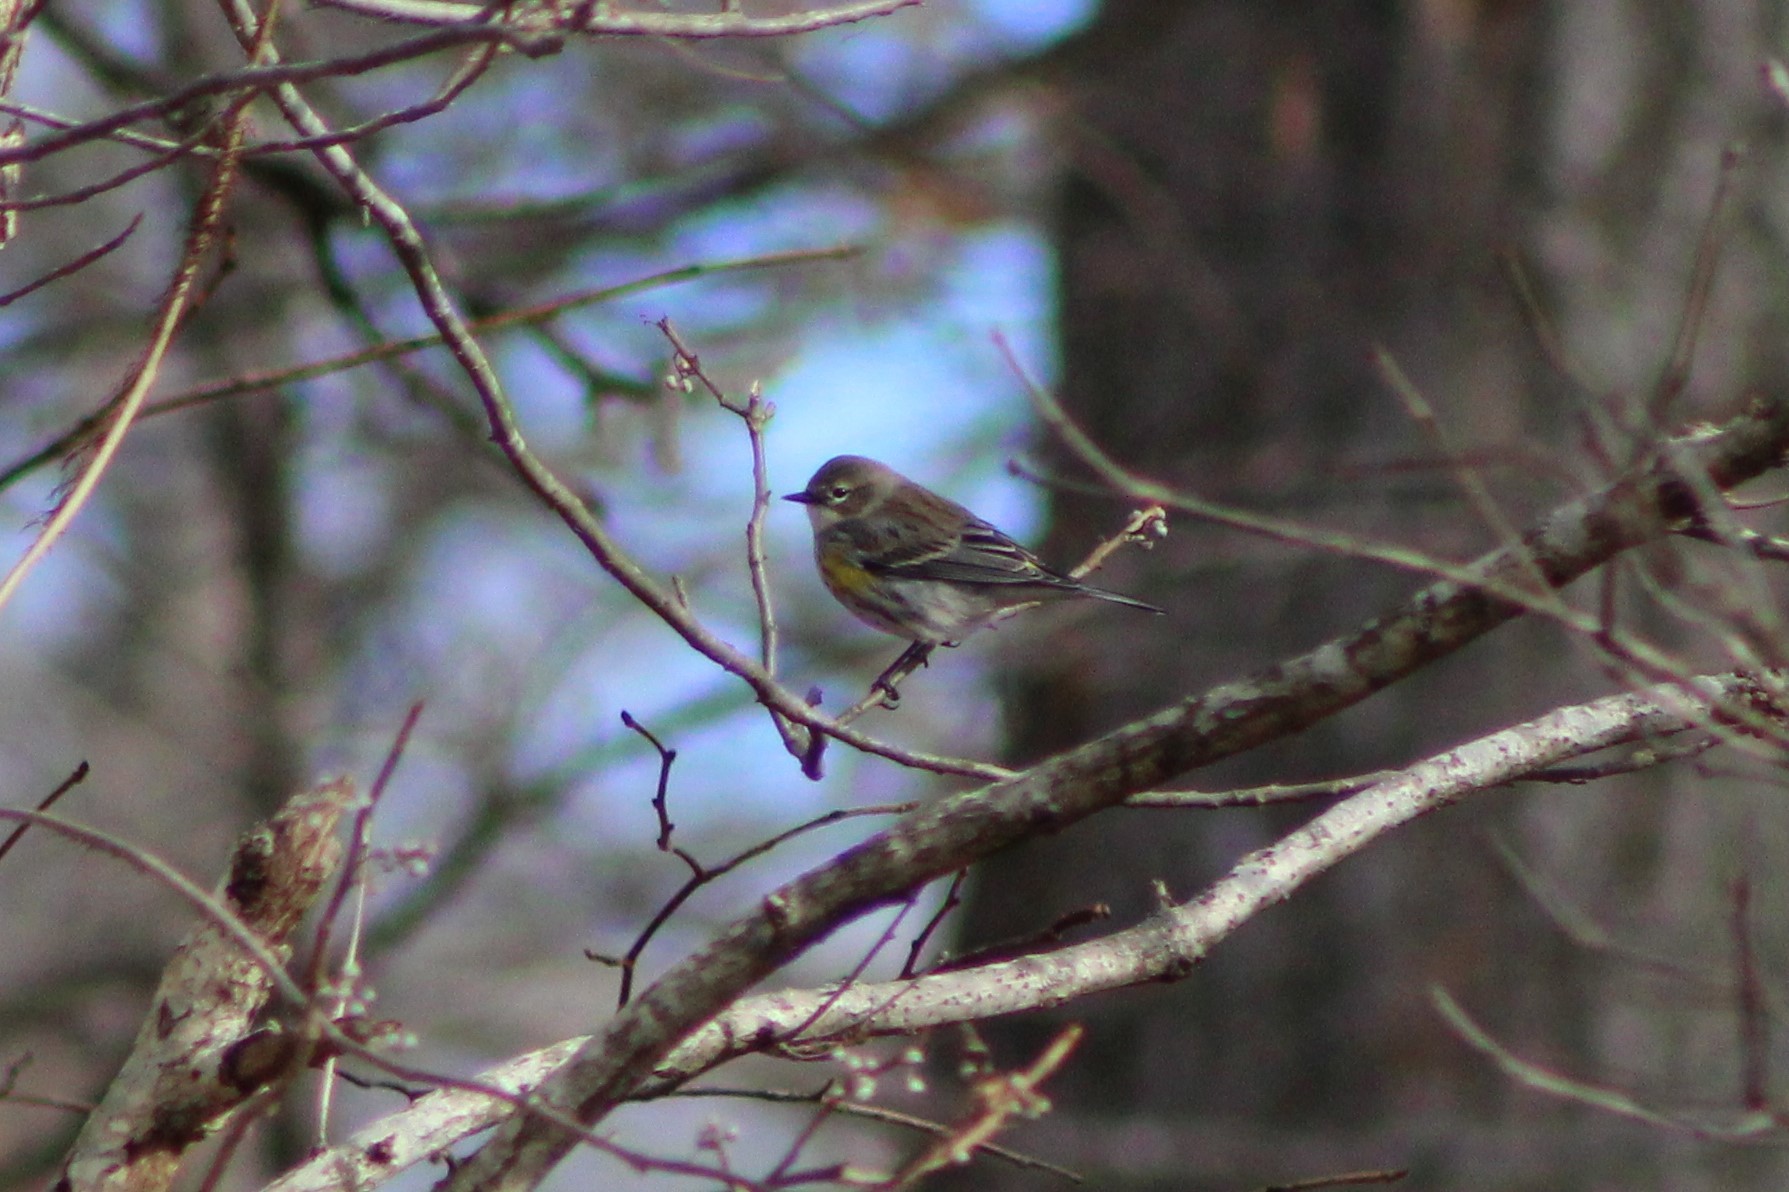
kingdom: Animalia
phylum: Chordata
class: Aves
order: Passeriformes
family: Parulidae
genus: Setophaga
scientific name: Setophaga coronata
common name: Myrtle warbler
